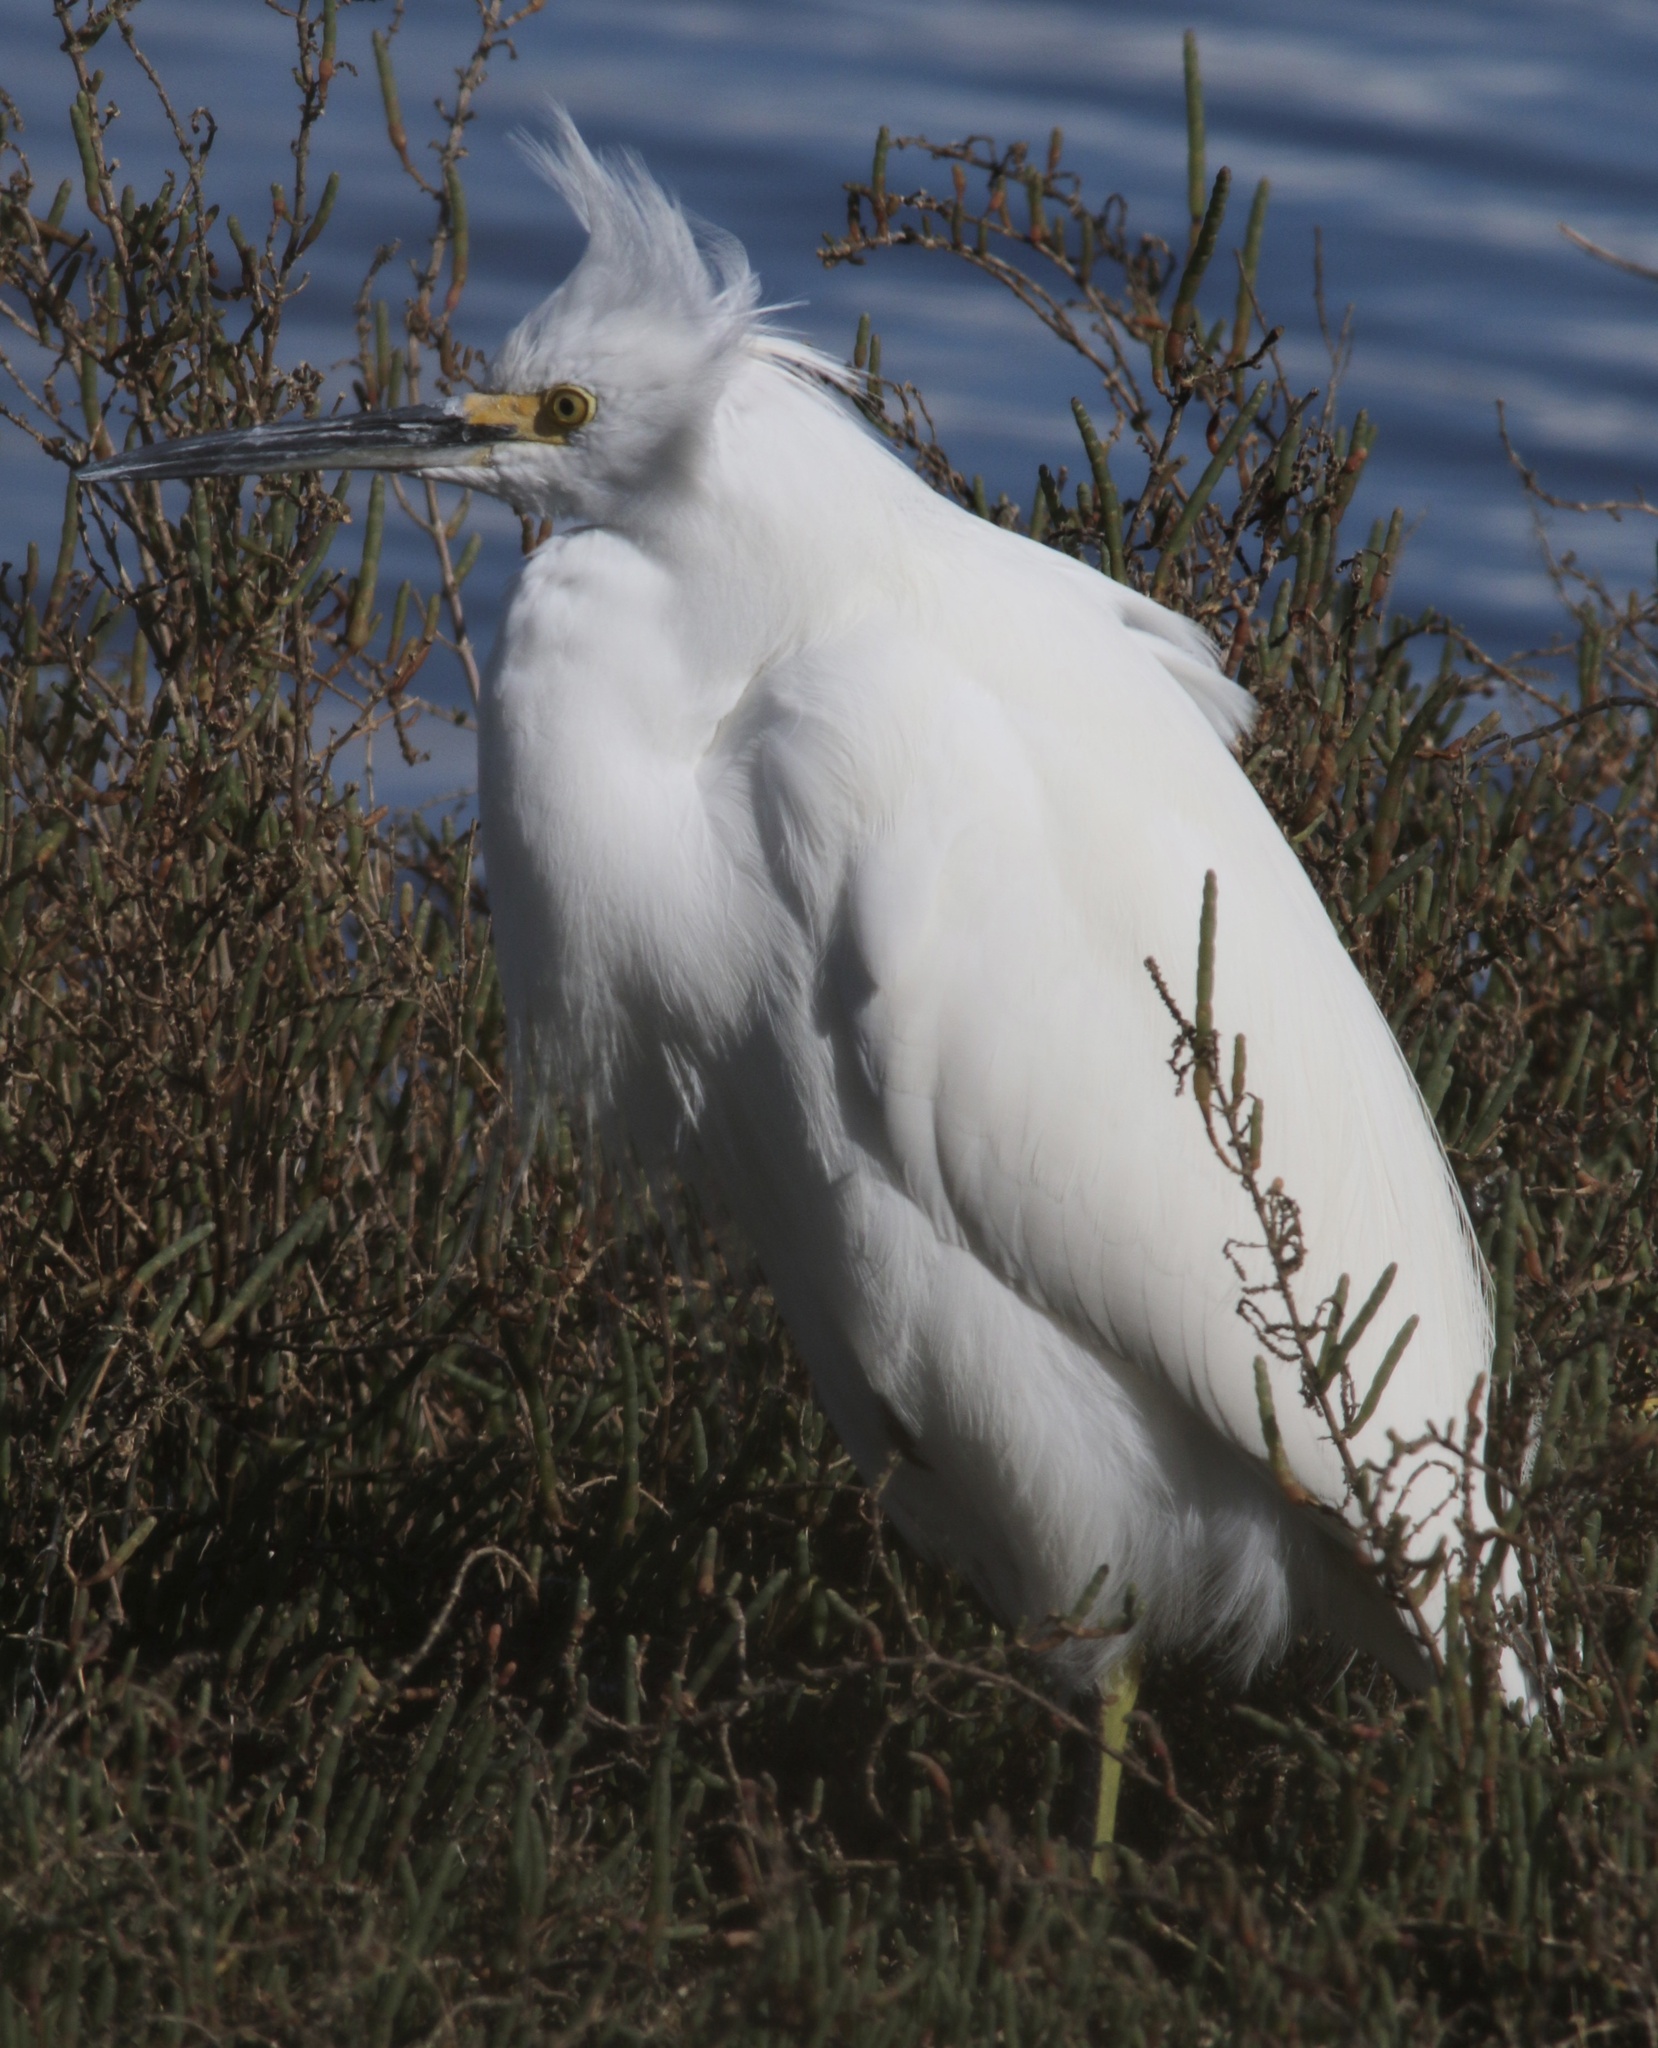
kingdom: Animalia
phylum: Chordata
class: Aves
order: Pelecaniformes
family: Ardeidae
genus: Egretta
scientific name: Egretta thula
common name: Snowy egret
